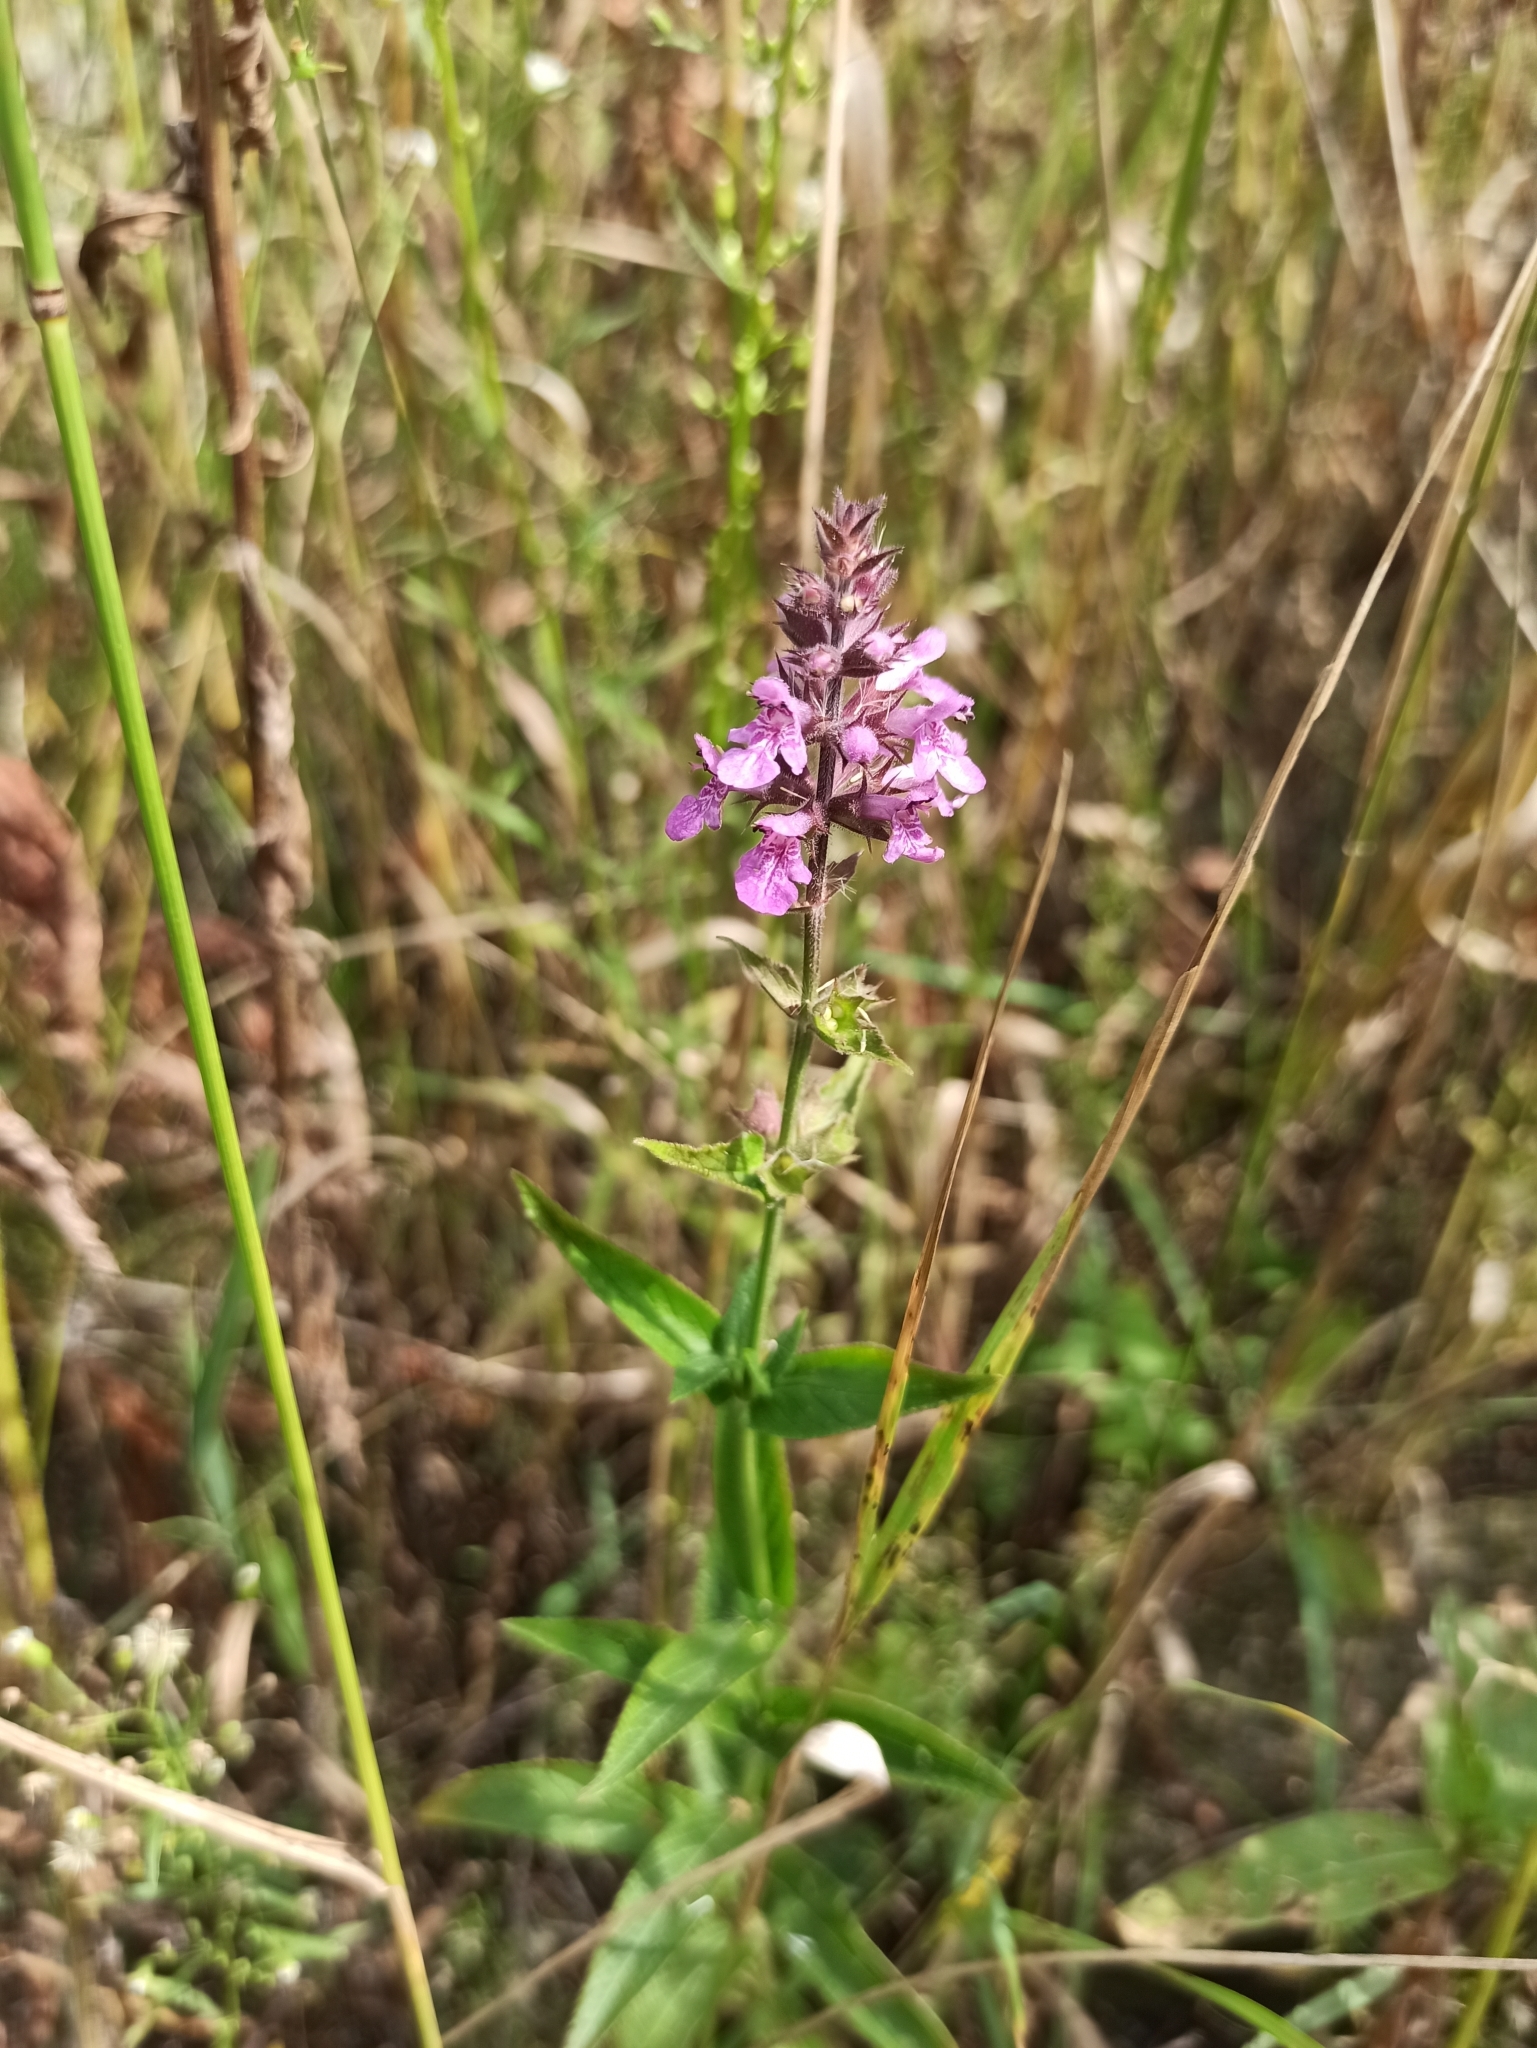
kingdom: Plantae
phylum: Tracheophyta
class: Magnoliopsida
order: Lamiales
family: Lamiaceae
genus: Stachys
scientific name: Stachys palustris
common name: Marsh woundwort
